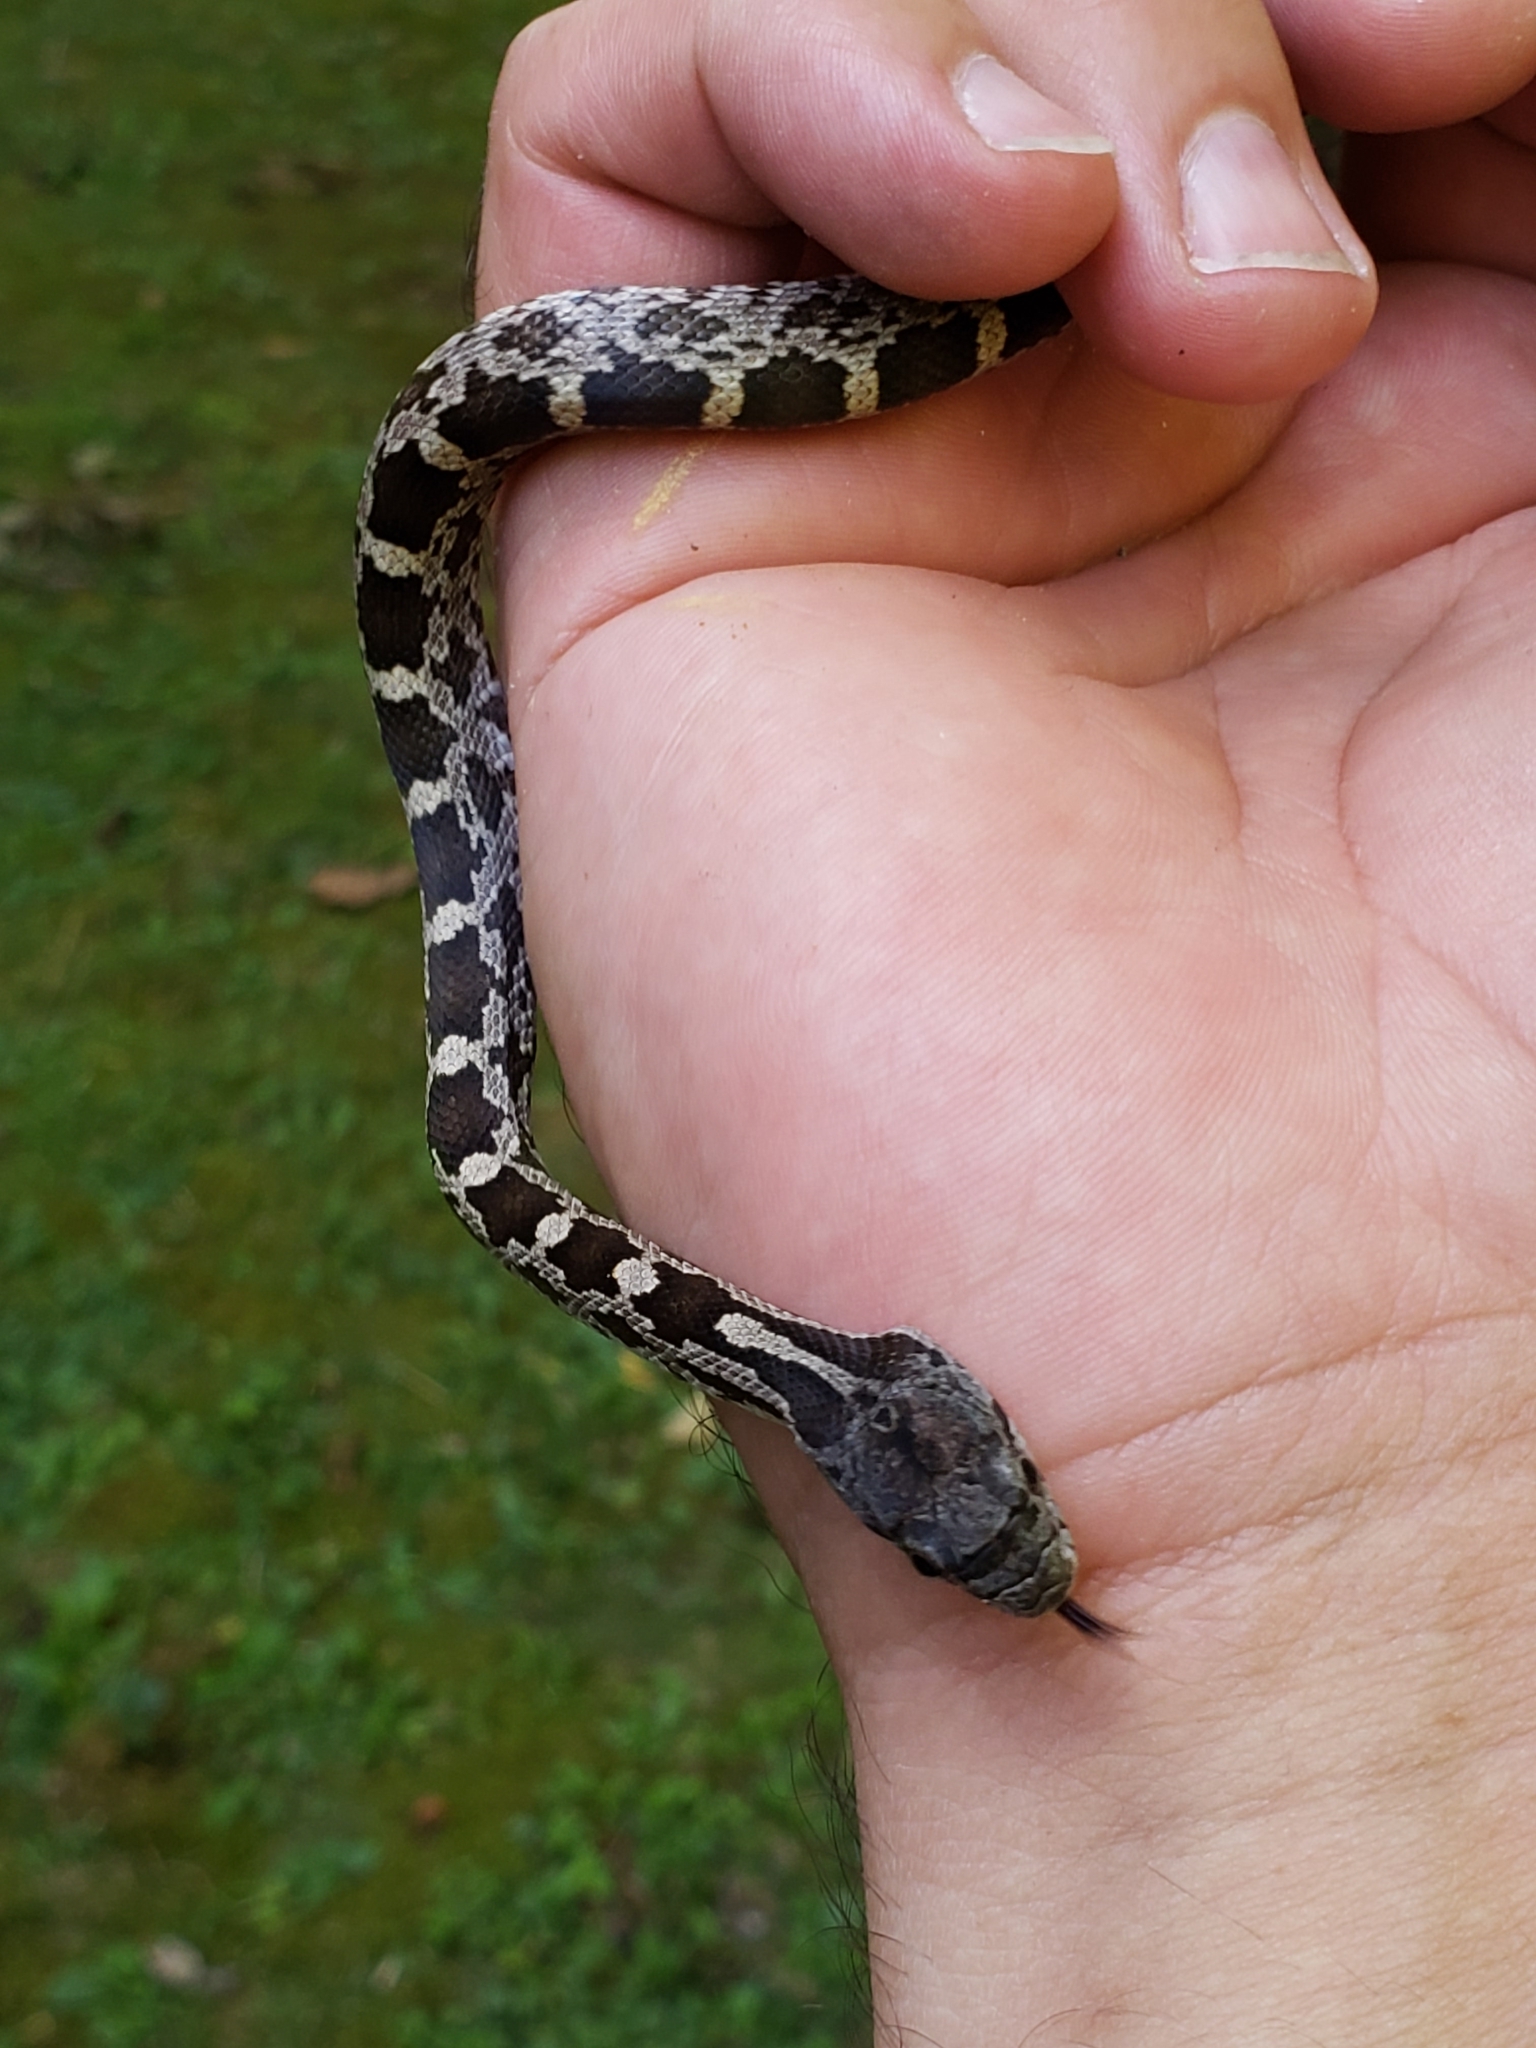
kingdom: Animalia
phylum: Chordata
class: Squamata
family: Colubridae
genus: Pantherophis
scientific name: Pantherophis alleghaniensis
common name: Eastern rat snake
